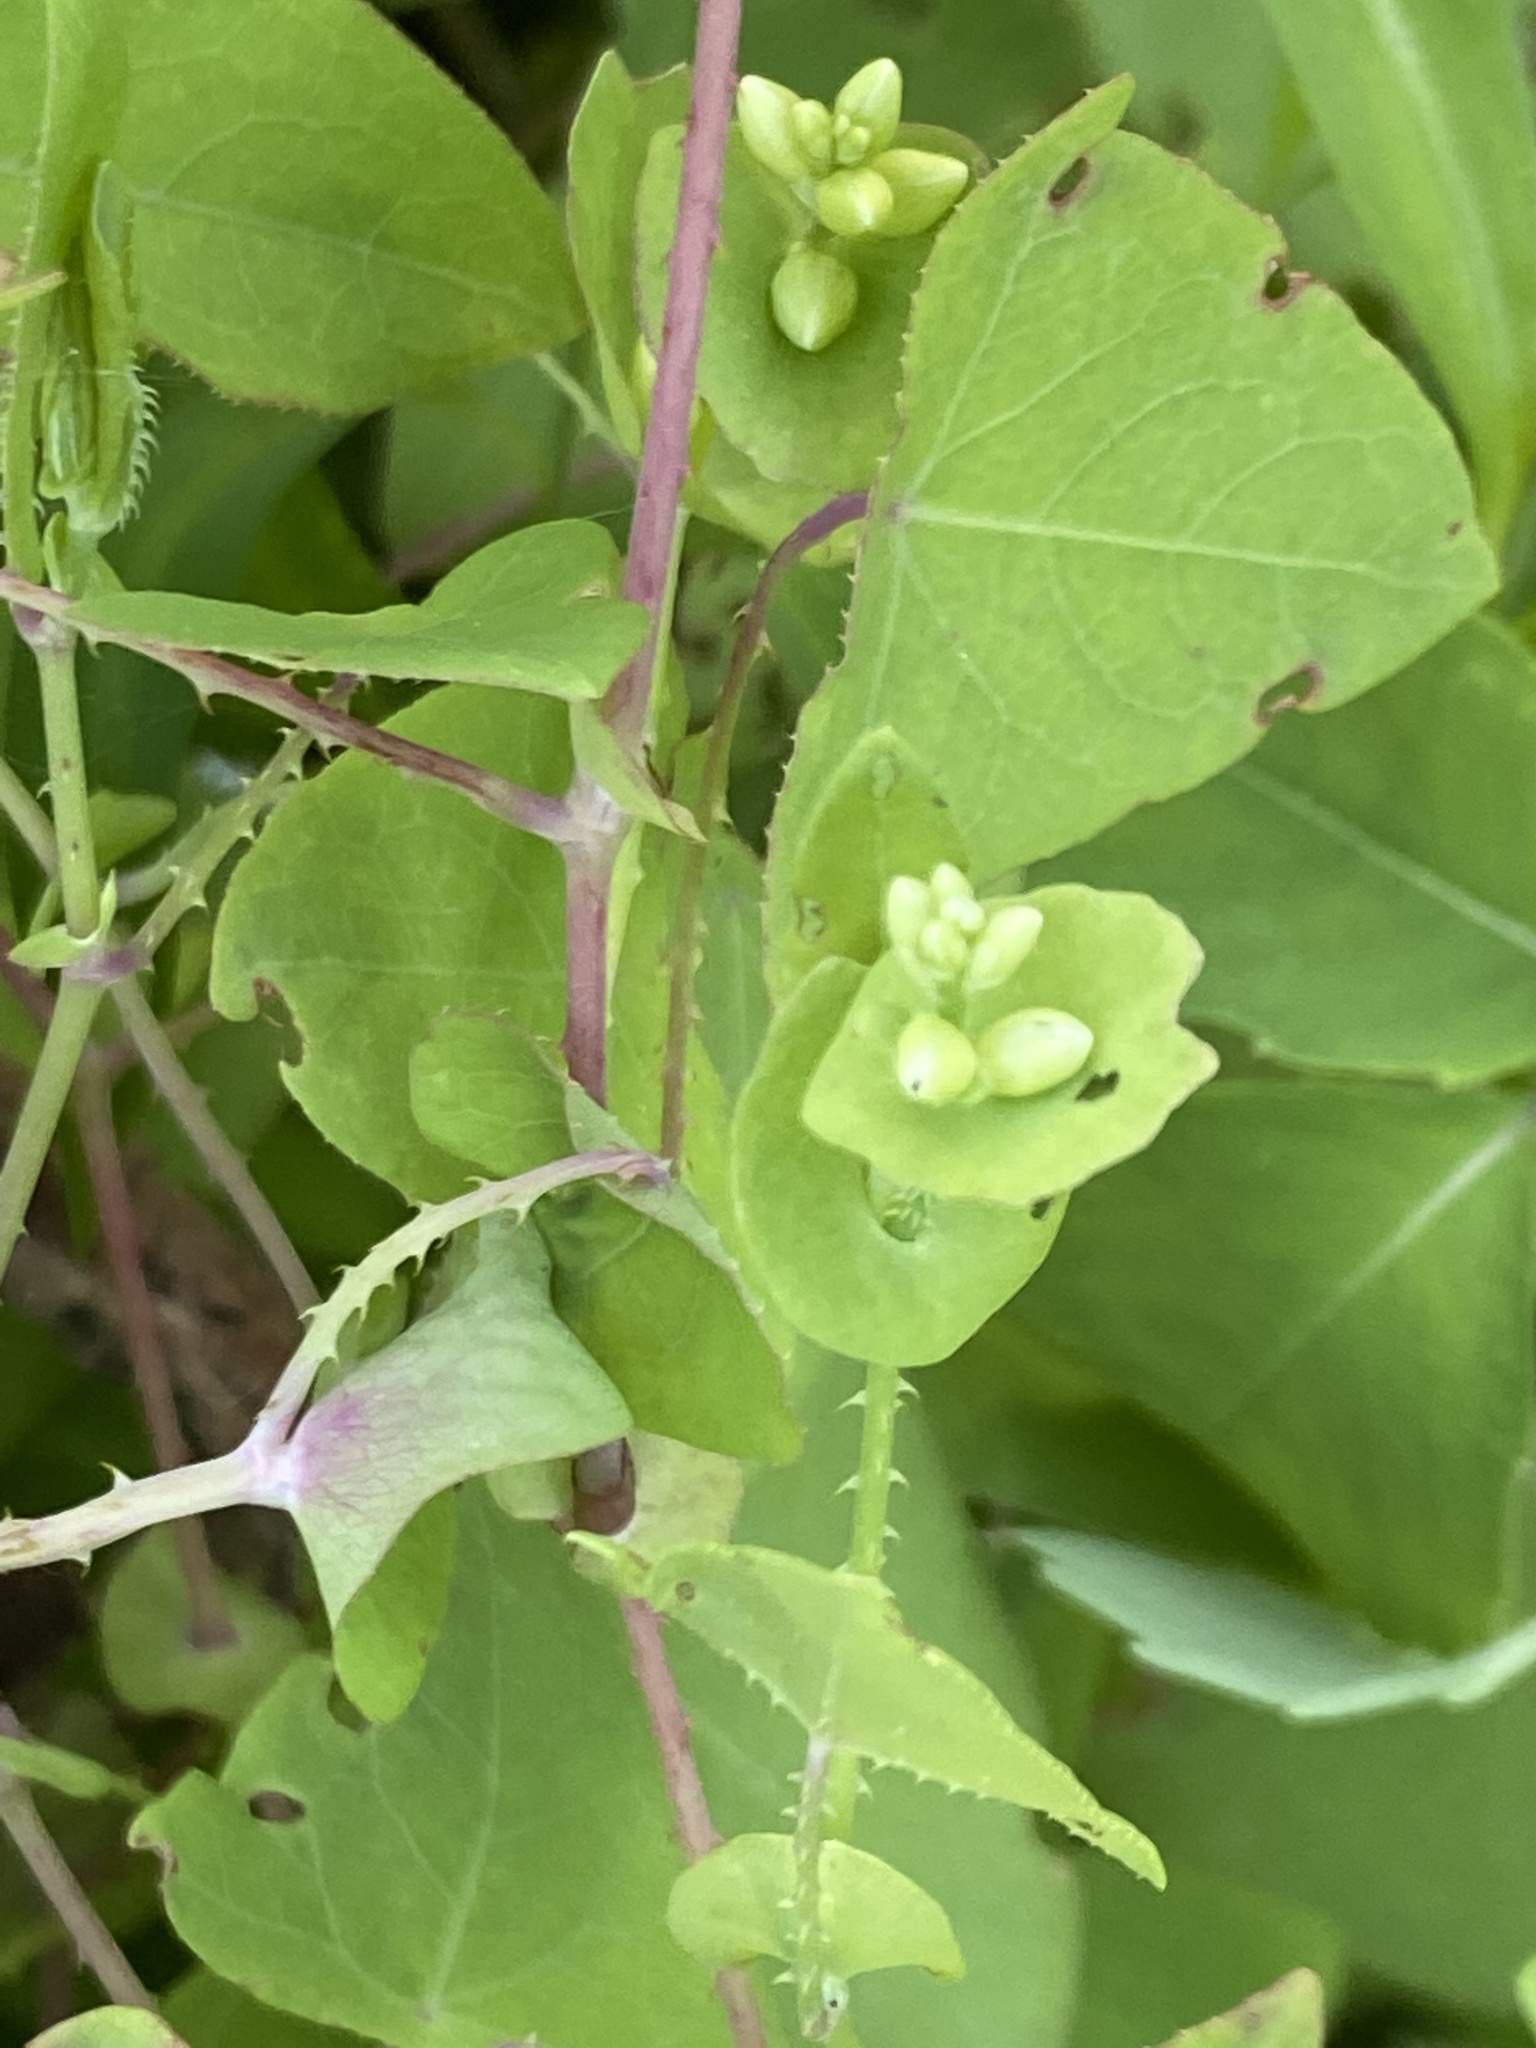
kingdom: Plantae
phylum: Tracheophyta
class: Magnoliopsida
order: Caryophyllales
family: Polygonaceae
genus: Persicaria
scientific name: Persicaria perfoliata
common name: Asiatic tearthumb
